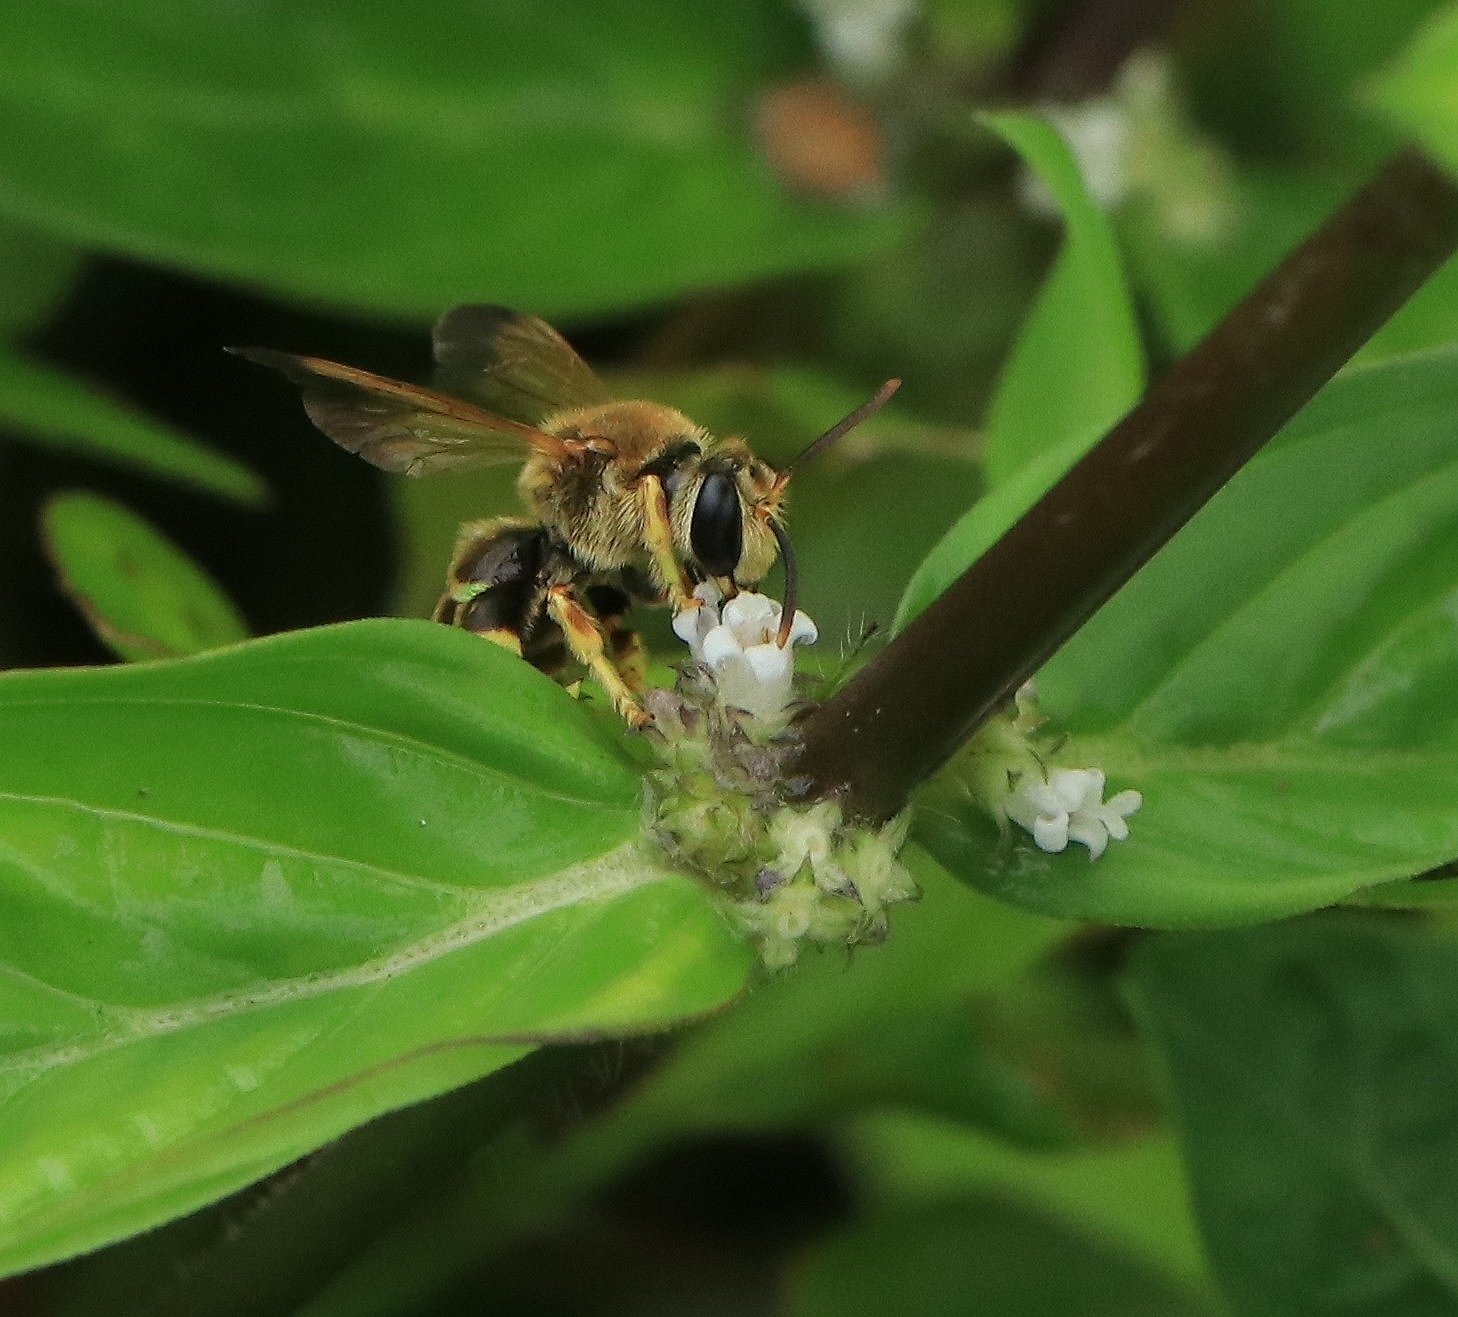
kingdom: Animalia
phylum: Arthropoda
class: Insecta
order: Hymenoptera
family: Halictidae
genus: Nomia
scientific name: Nomia crassipes
